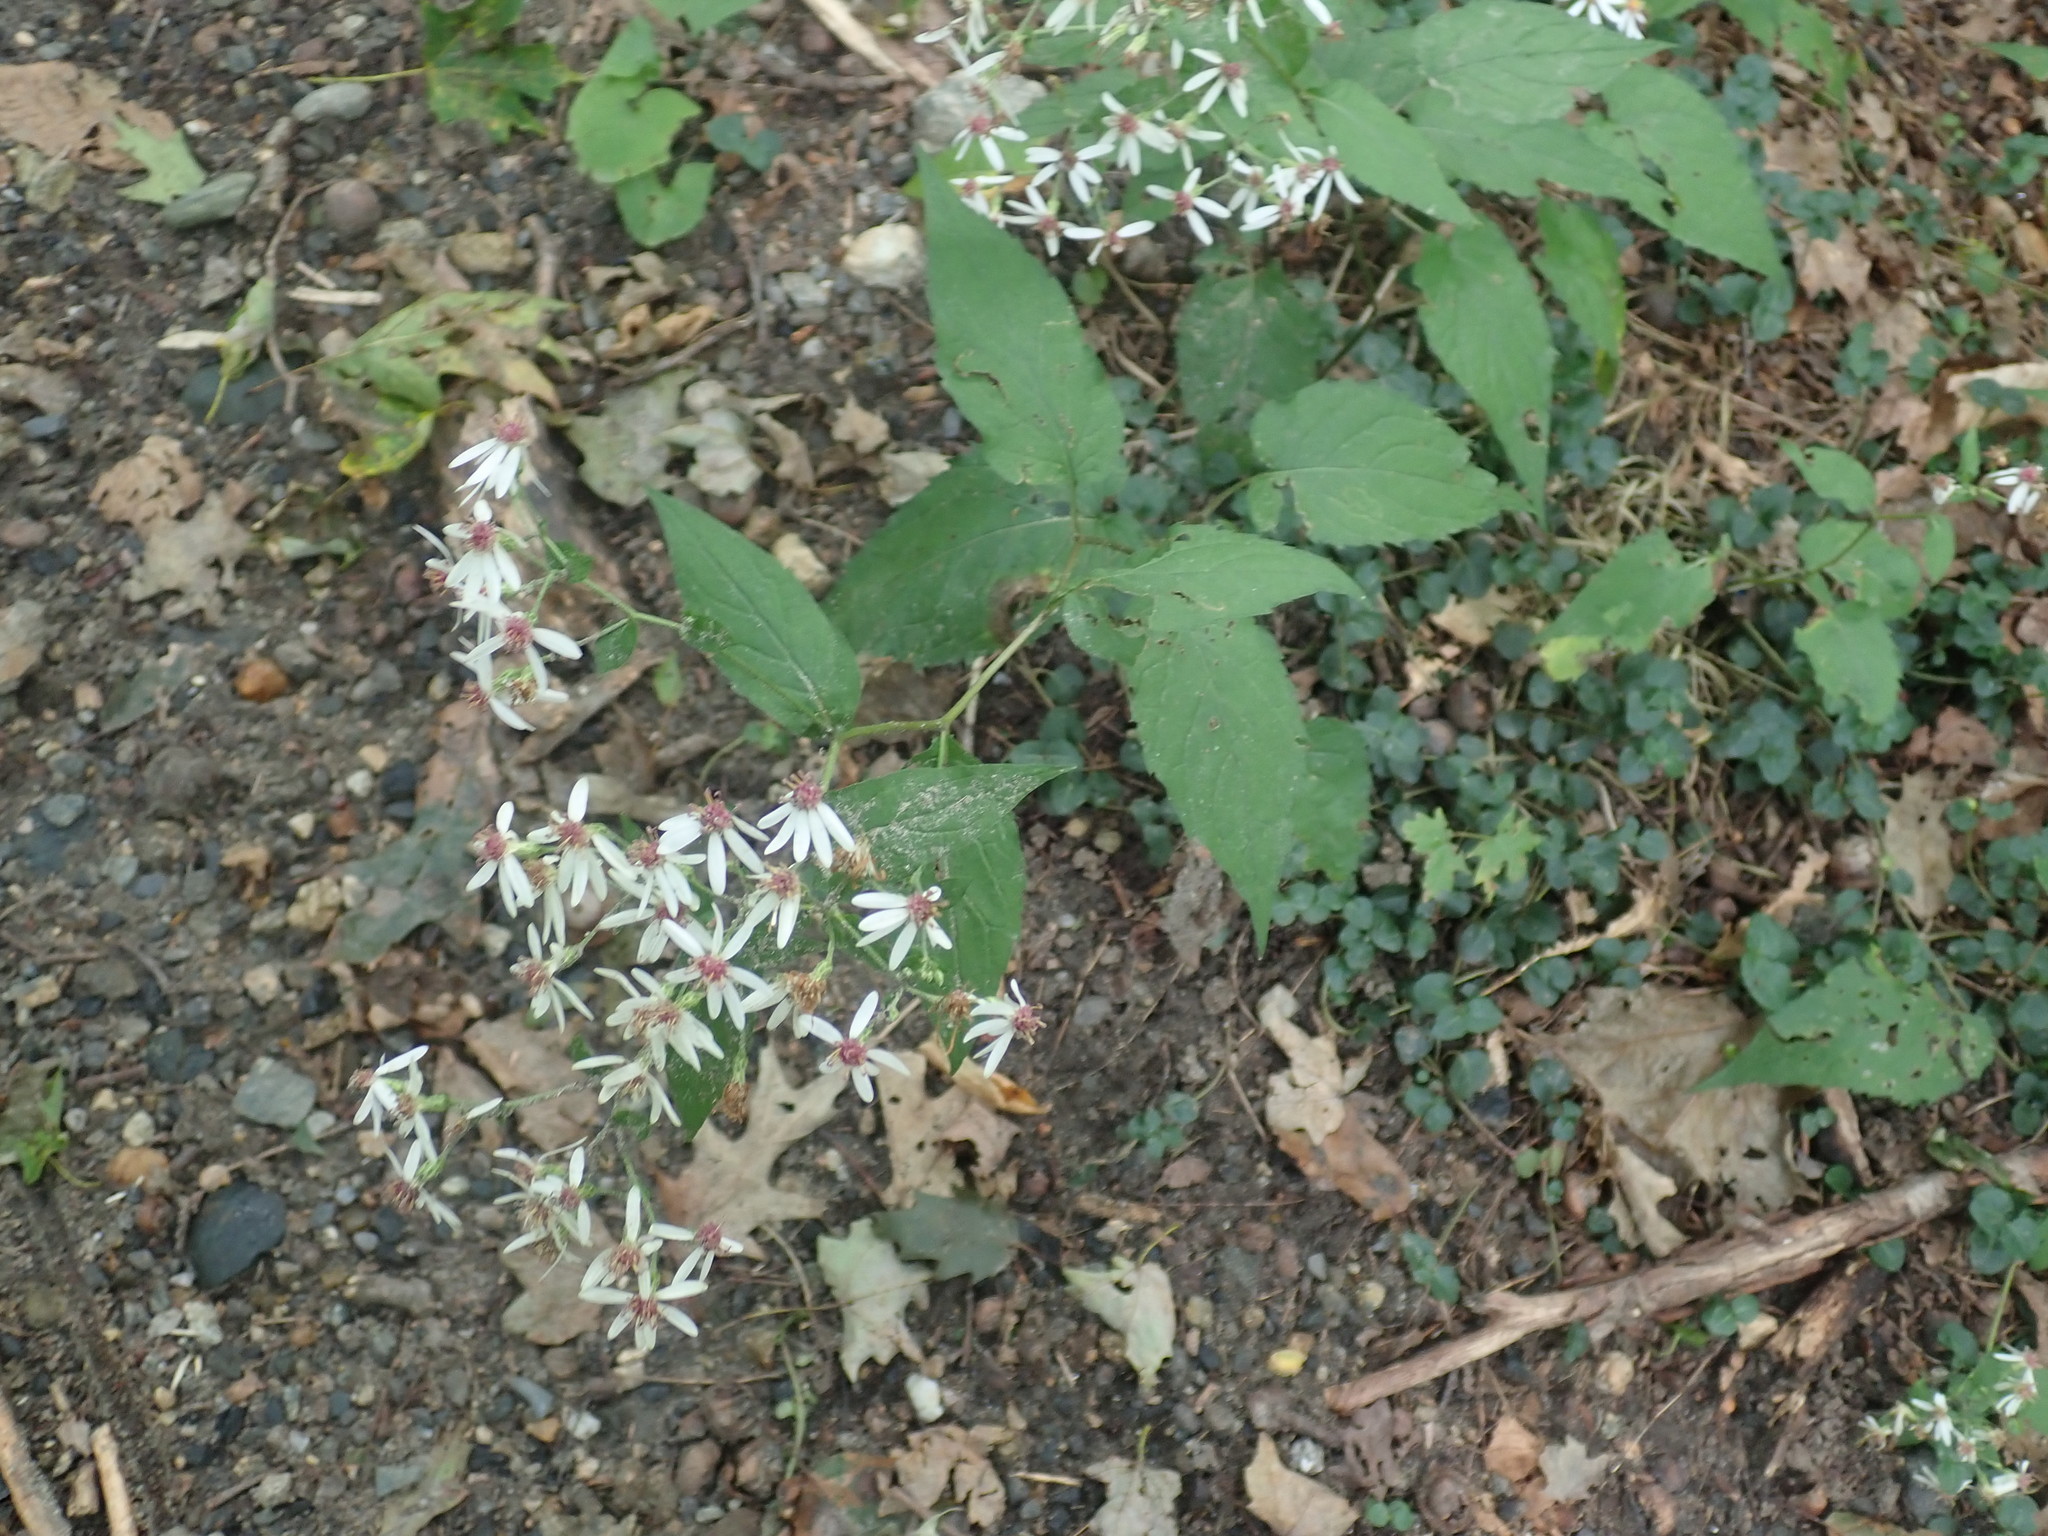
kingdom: Plantae
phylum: Tracheophyta
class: Magnoliopsida
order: Asterales
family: Asteraceae
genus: Eurybia
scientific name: Eurybia divaricata
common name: White wood aster
